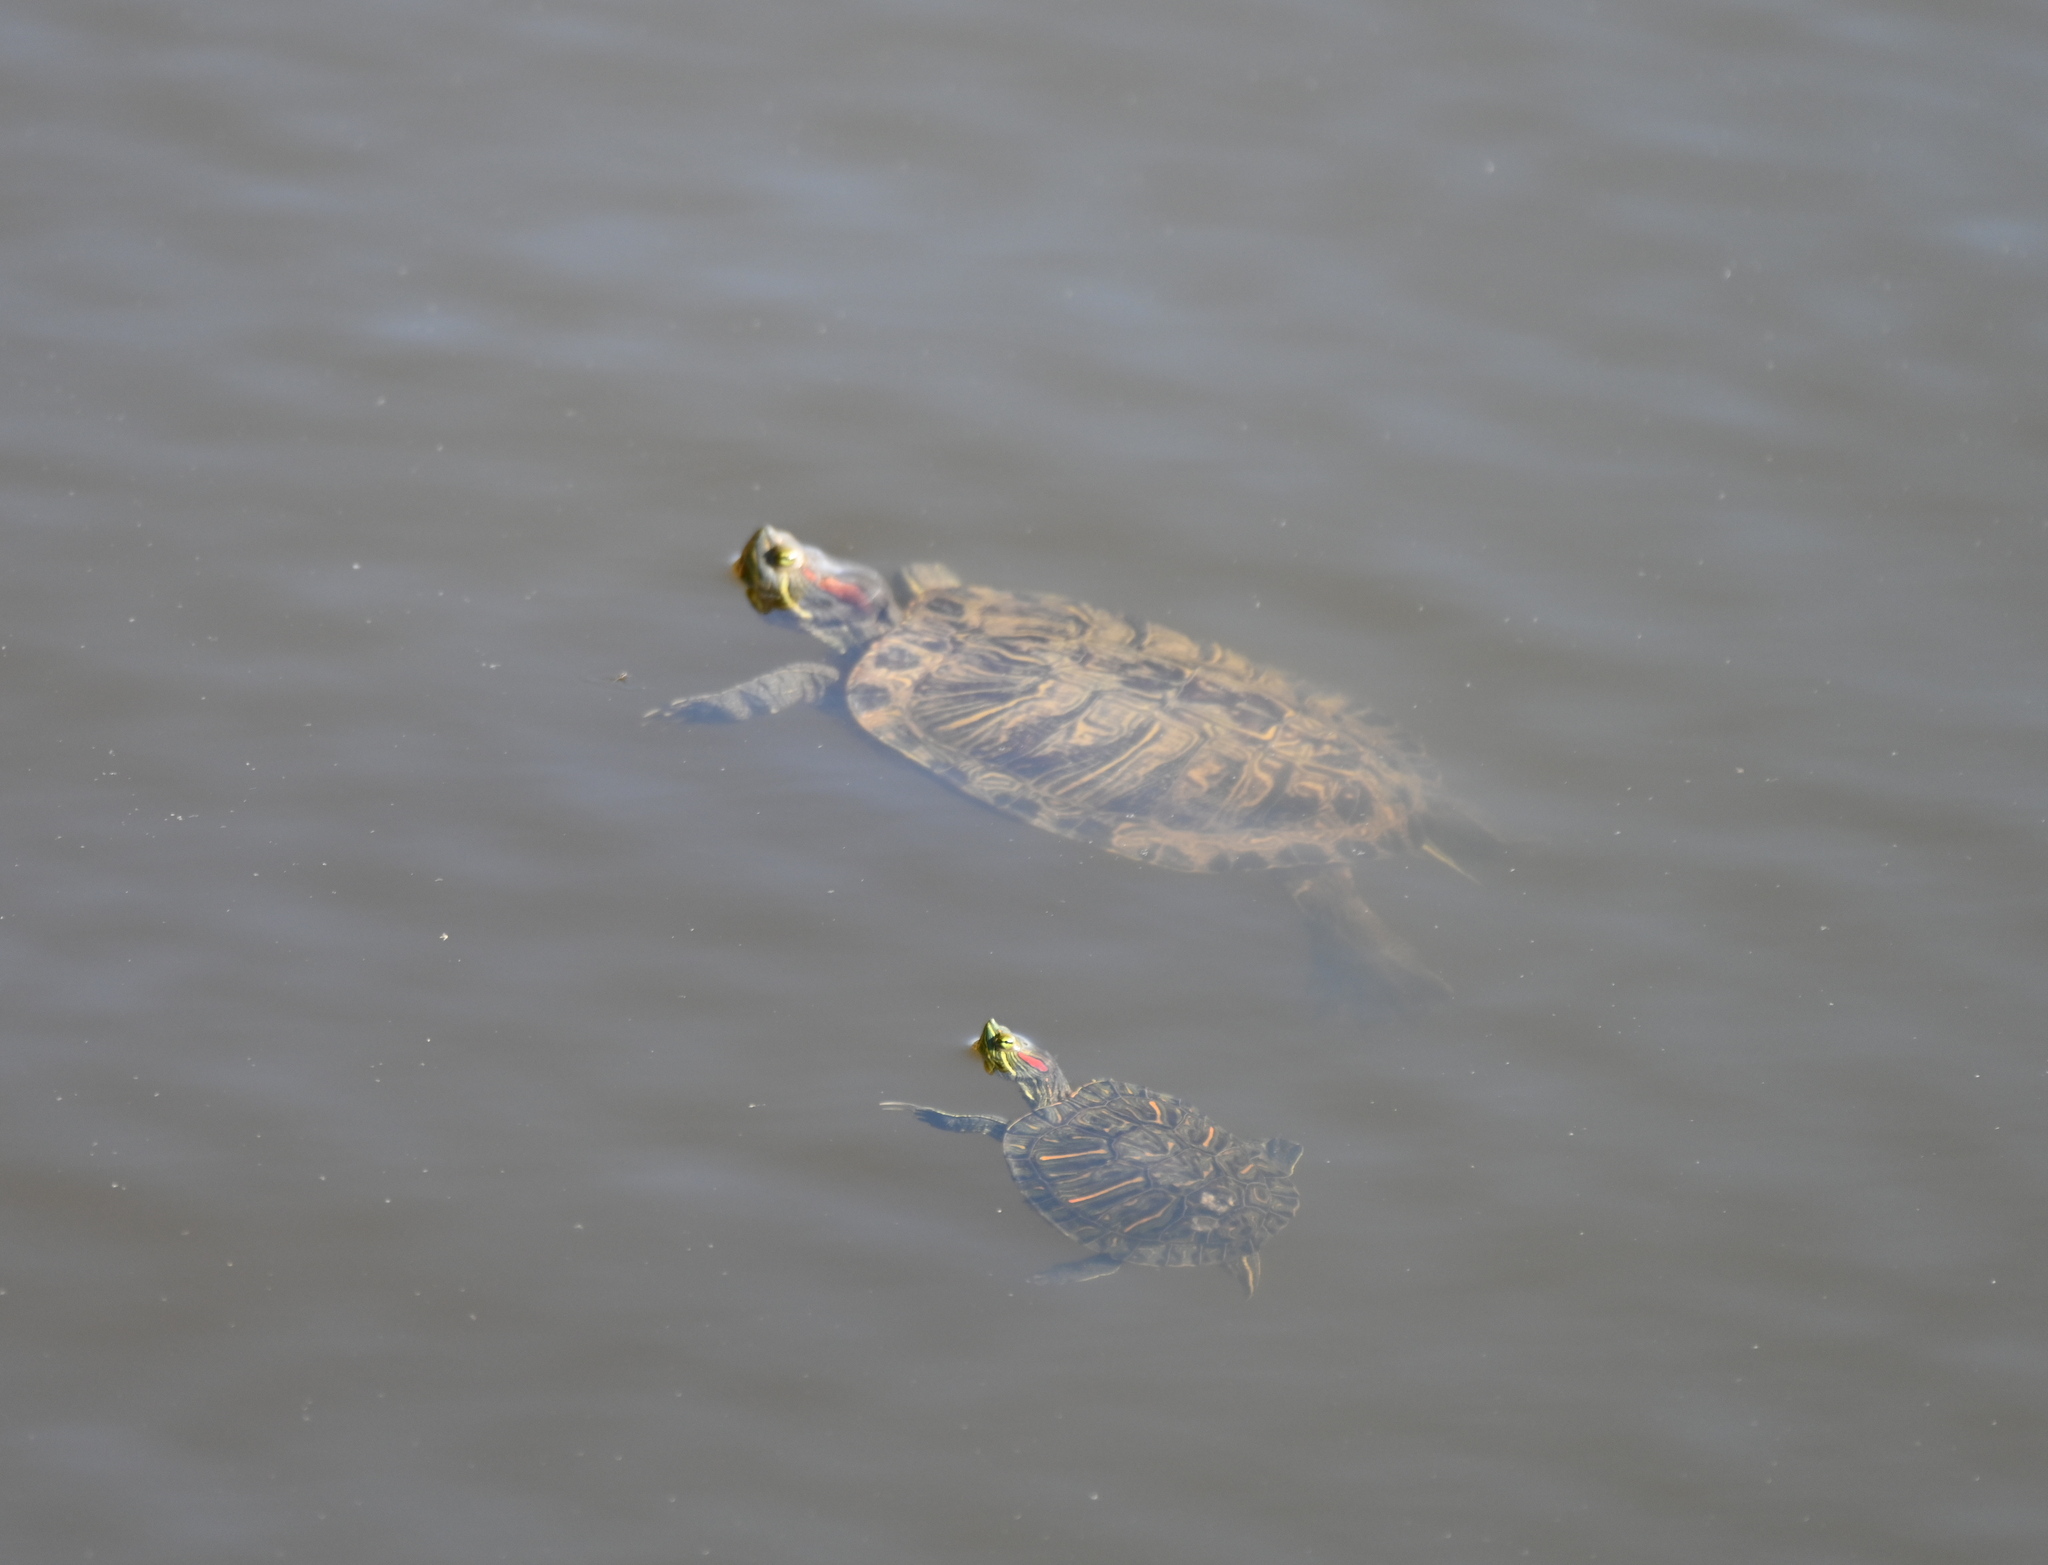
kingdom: Animalia
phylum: Chordata
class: Testudines
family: Emydidae
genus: Trachemys
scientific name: Trachemys scripta
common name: Slider
